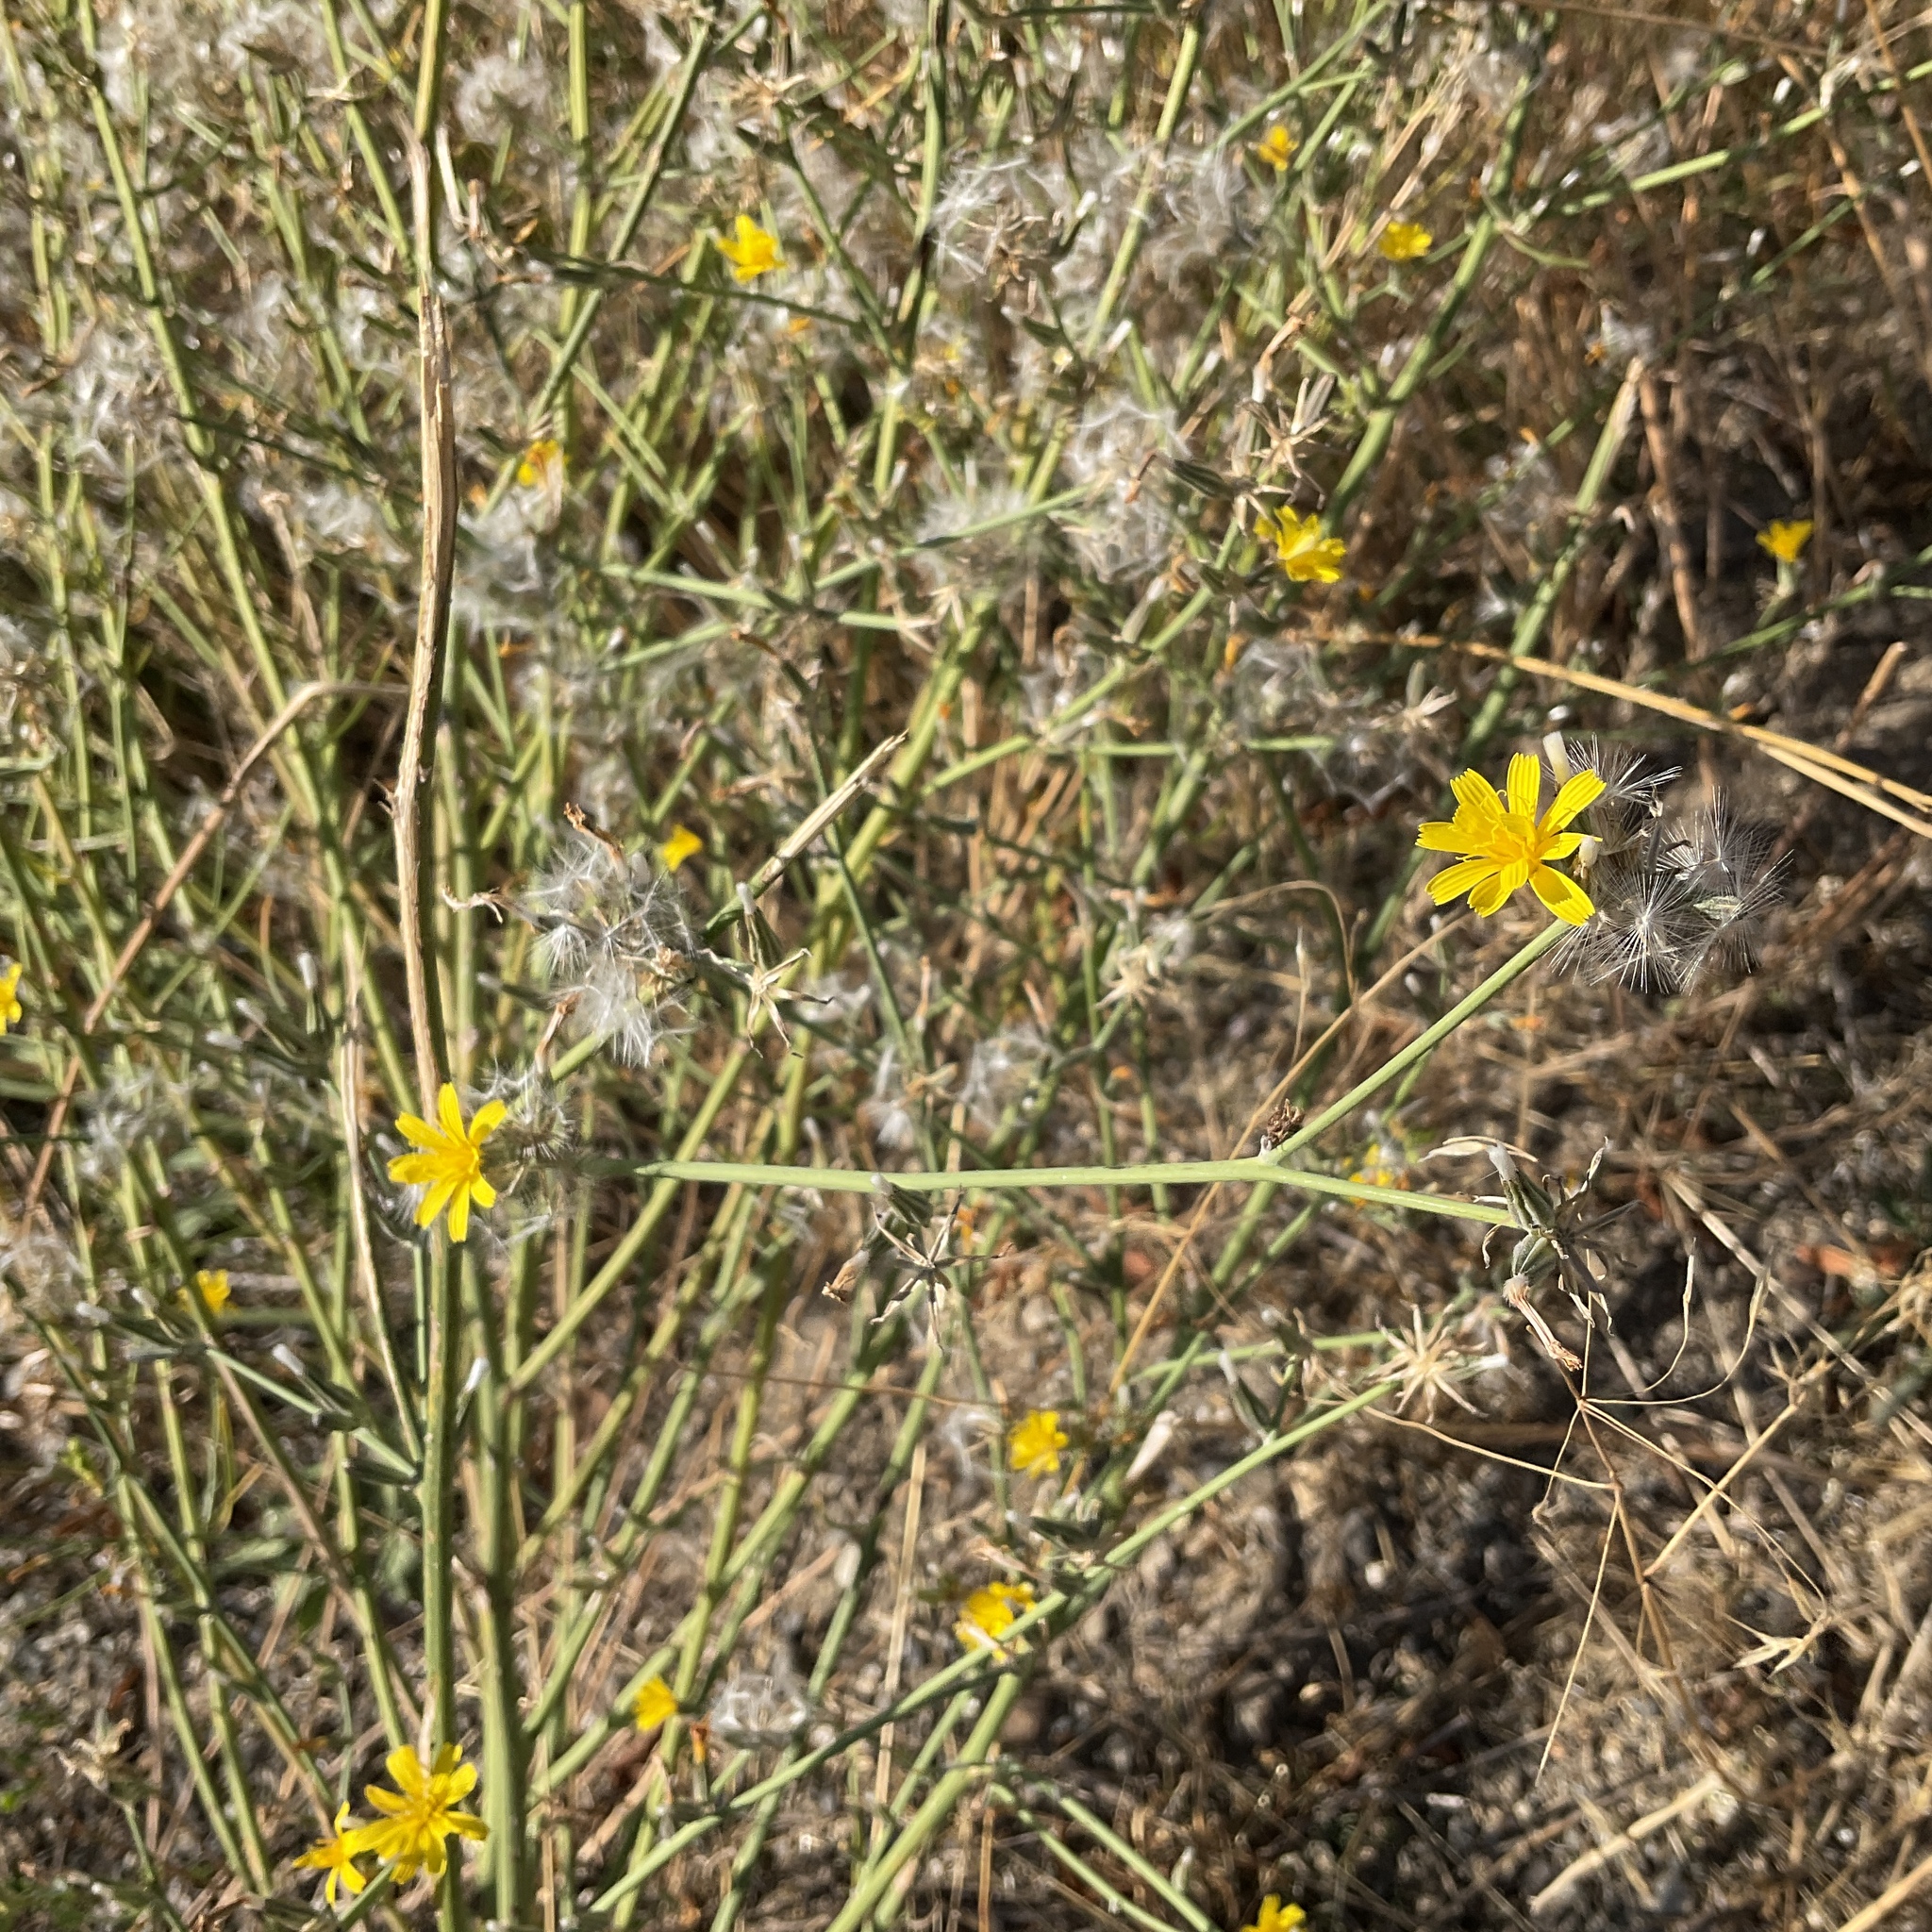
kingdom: Plantae
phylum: Tracheophyta
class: Magnoliopsida
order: Asterales
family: Asteraceae
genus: Chondrilla
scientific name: Chondrilla juncea
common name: Skeleton weed
